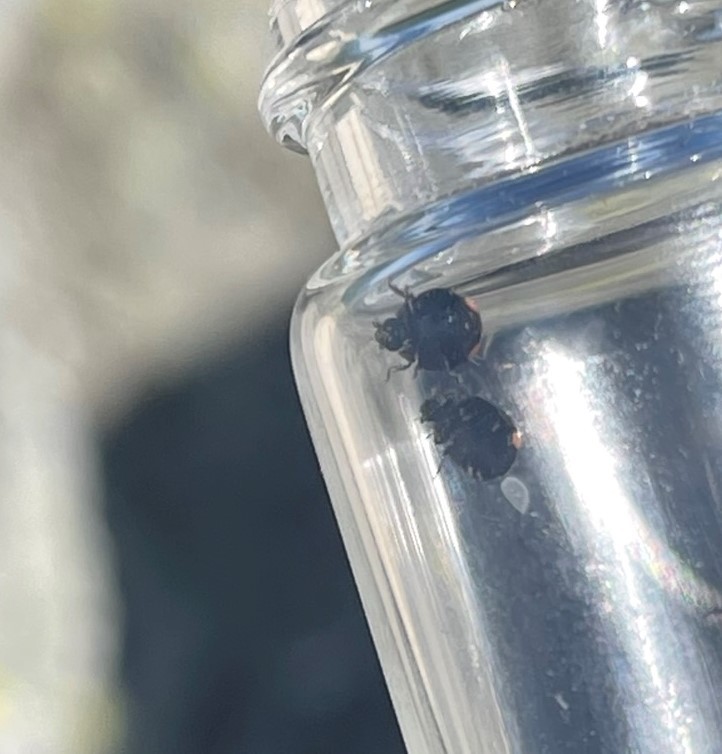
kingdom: Animalia
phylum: Arthropoda
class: Insecta
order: Coleoptera
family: Coccinellidae
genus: Hyperaspis
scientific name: Hyperaspis bigeminata
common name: Bigeminate sigil lady beetle
